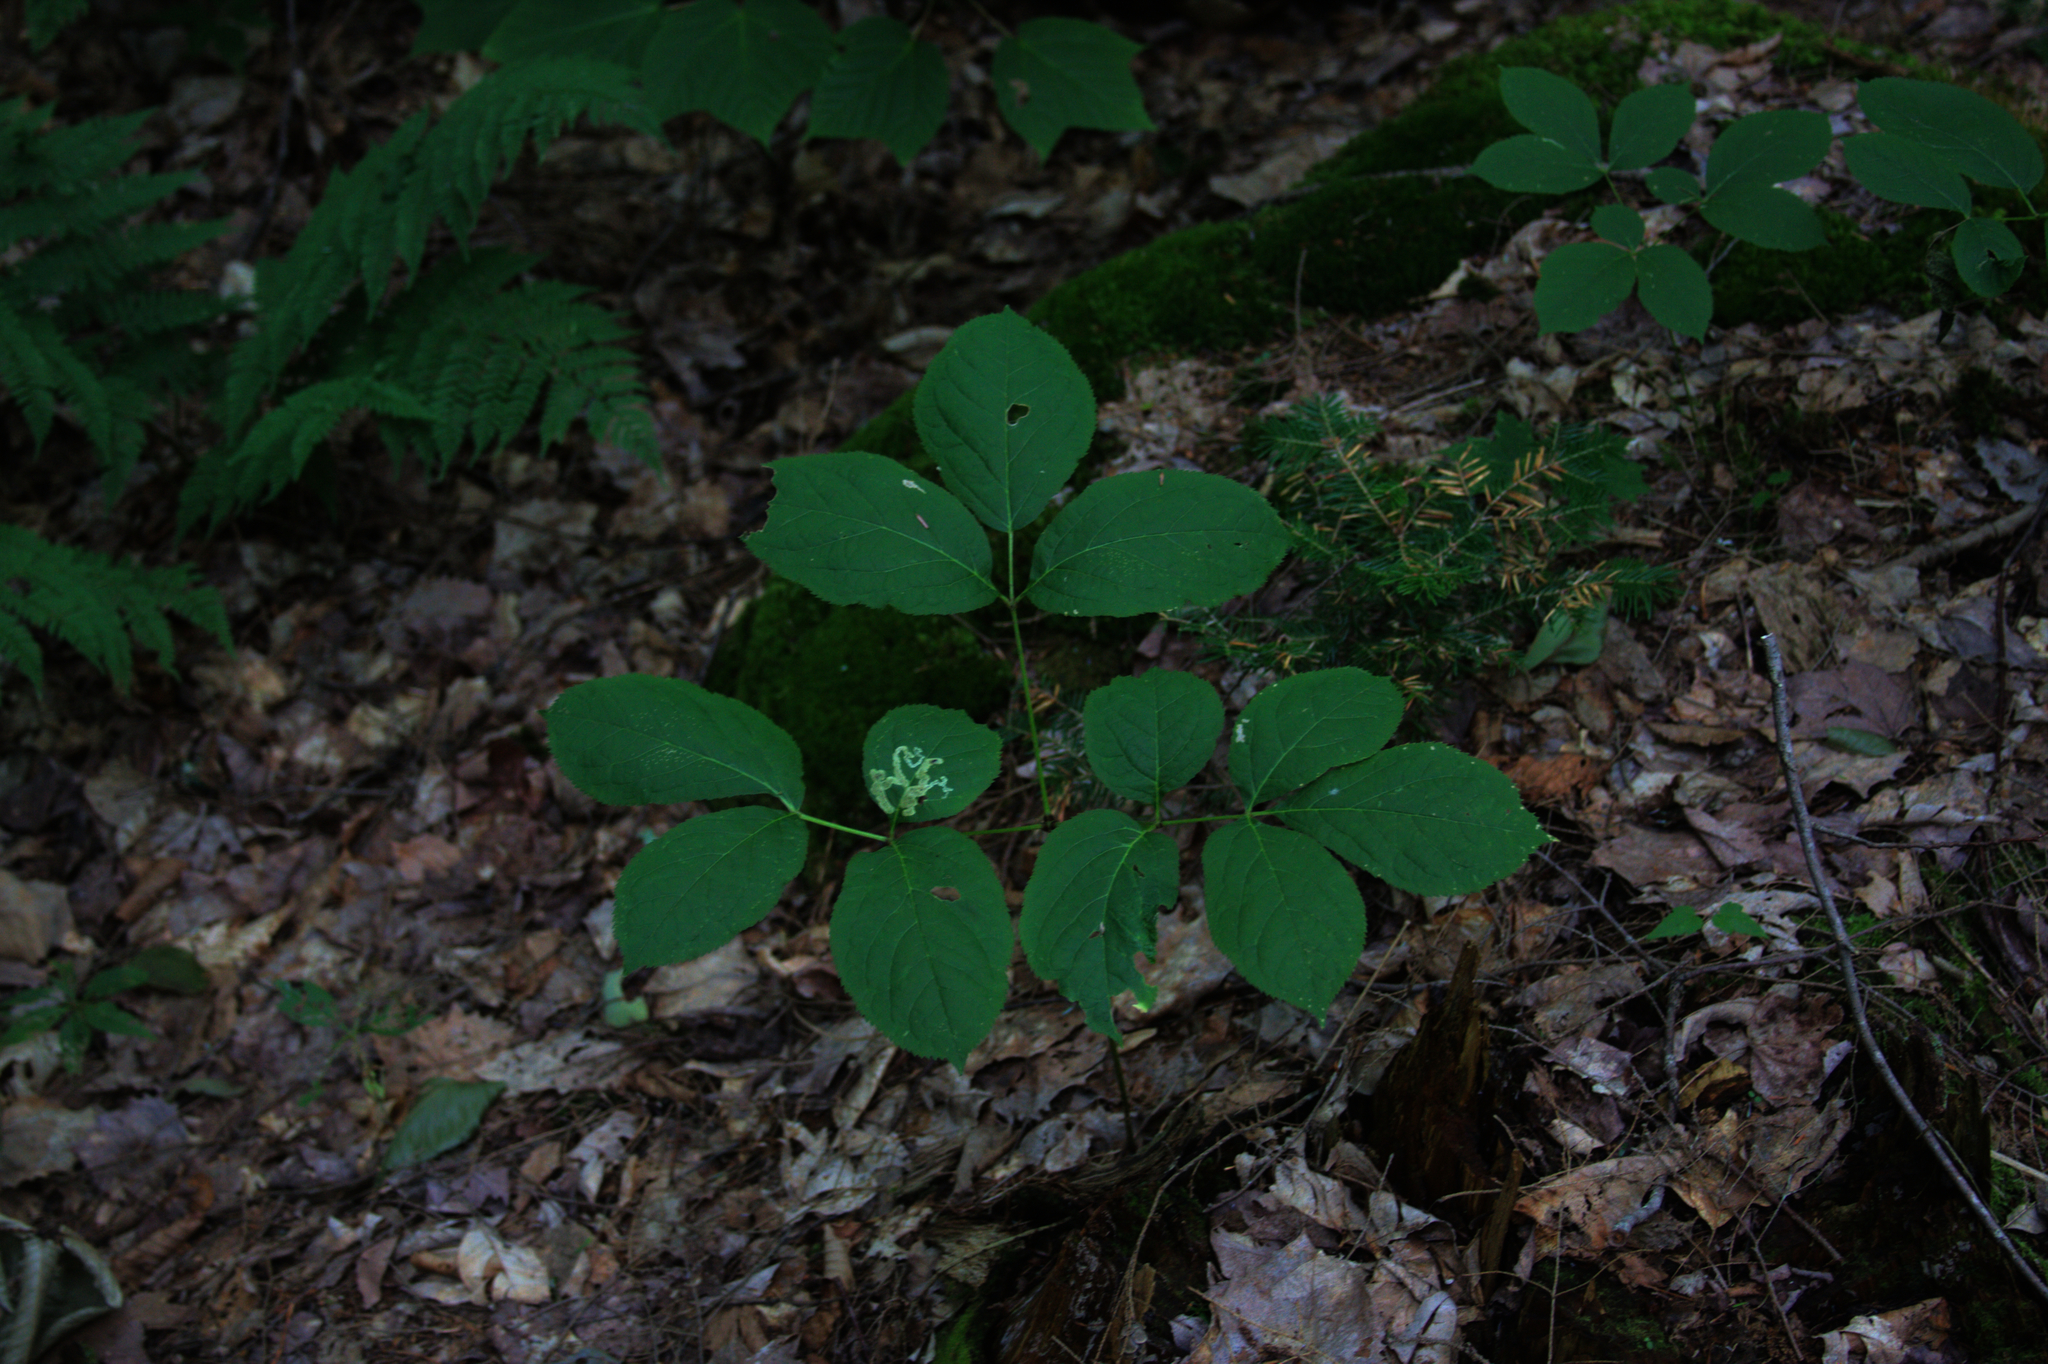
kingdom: Plantae
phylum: Tracheophyta
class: Magnoliopsida
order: Apiales
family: Araliaceae
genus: Aralia
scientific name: Aralia nudicaulis
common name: Wild sarsaparilla
